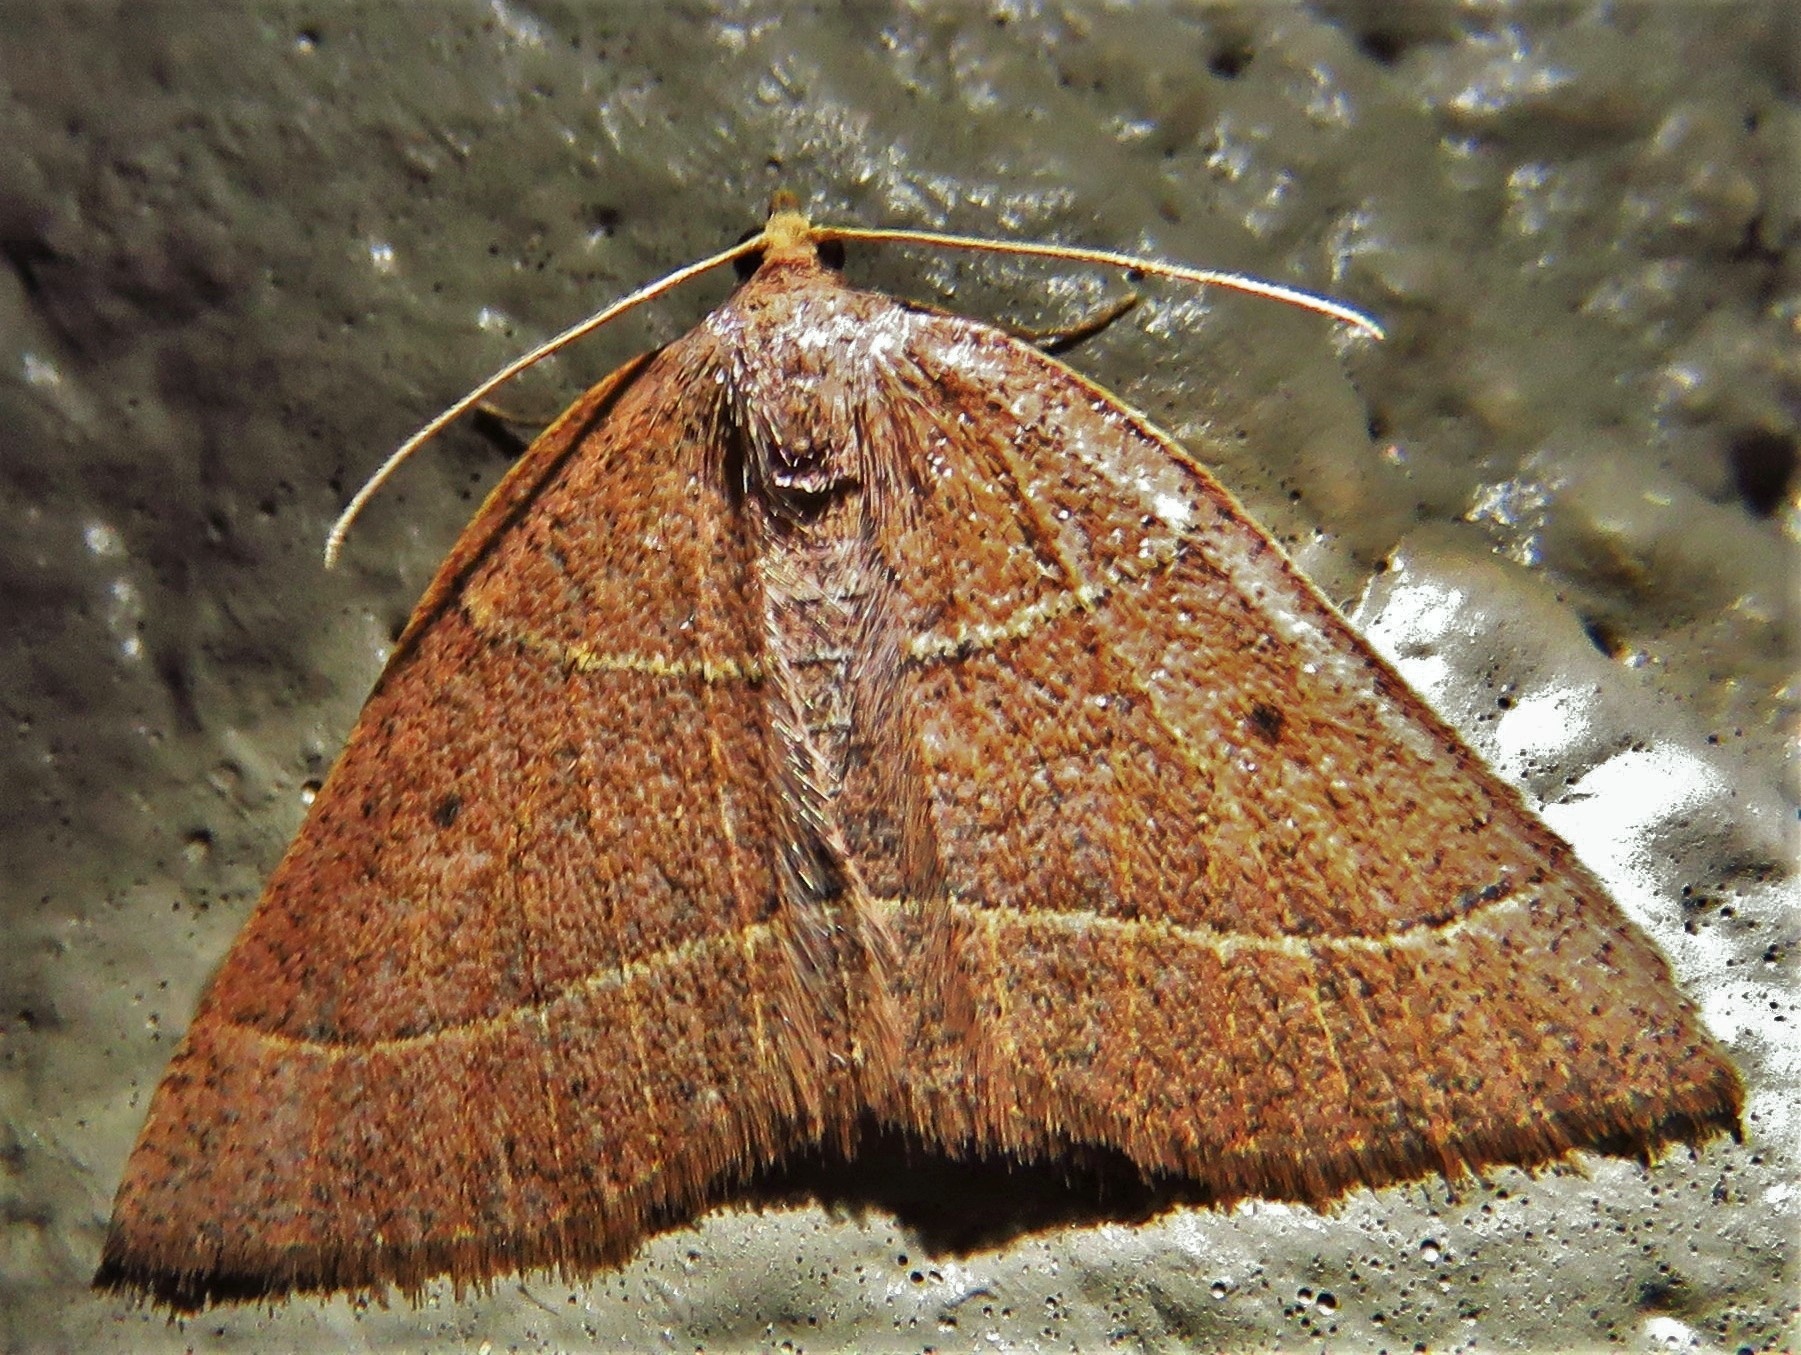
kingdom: Animalia
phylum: Arthropoda
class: Insecta
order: Lepidoptera
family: Geometridae
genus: Episemasia
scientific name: Episemasia cervinaria
